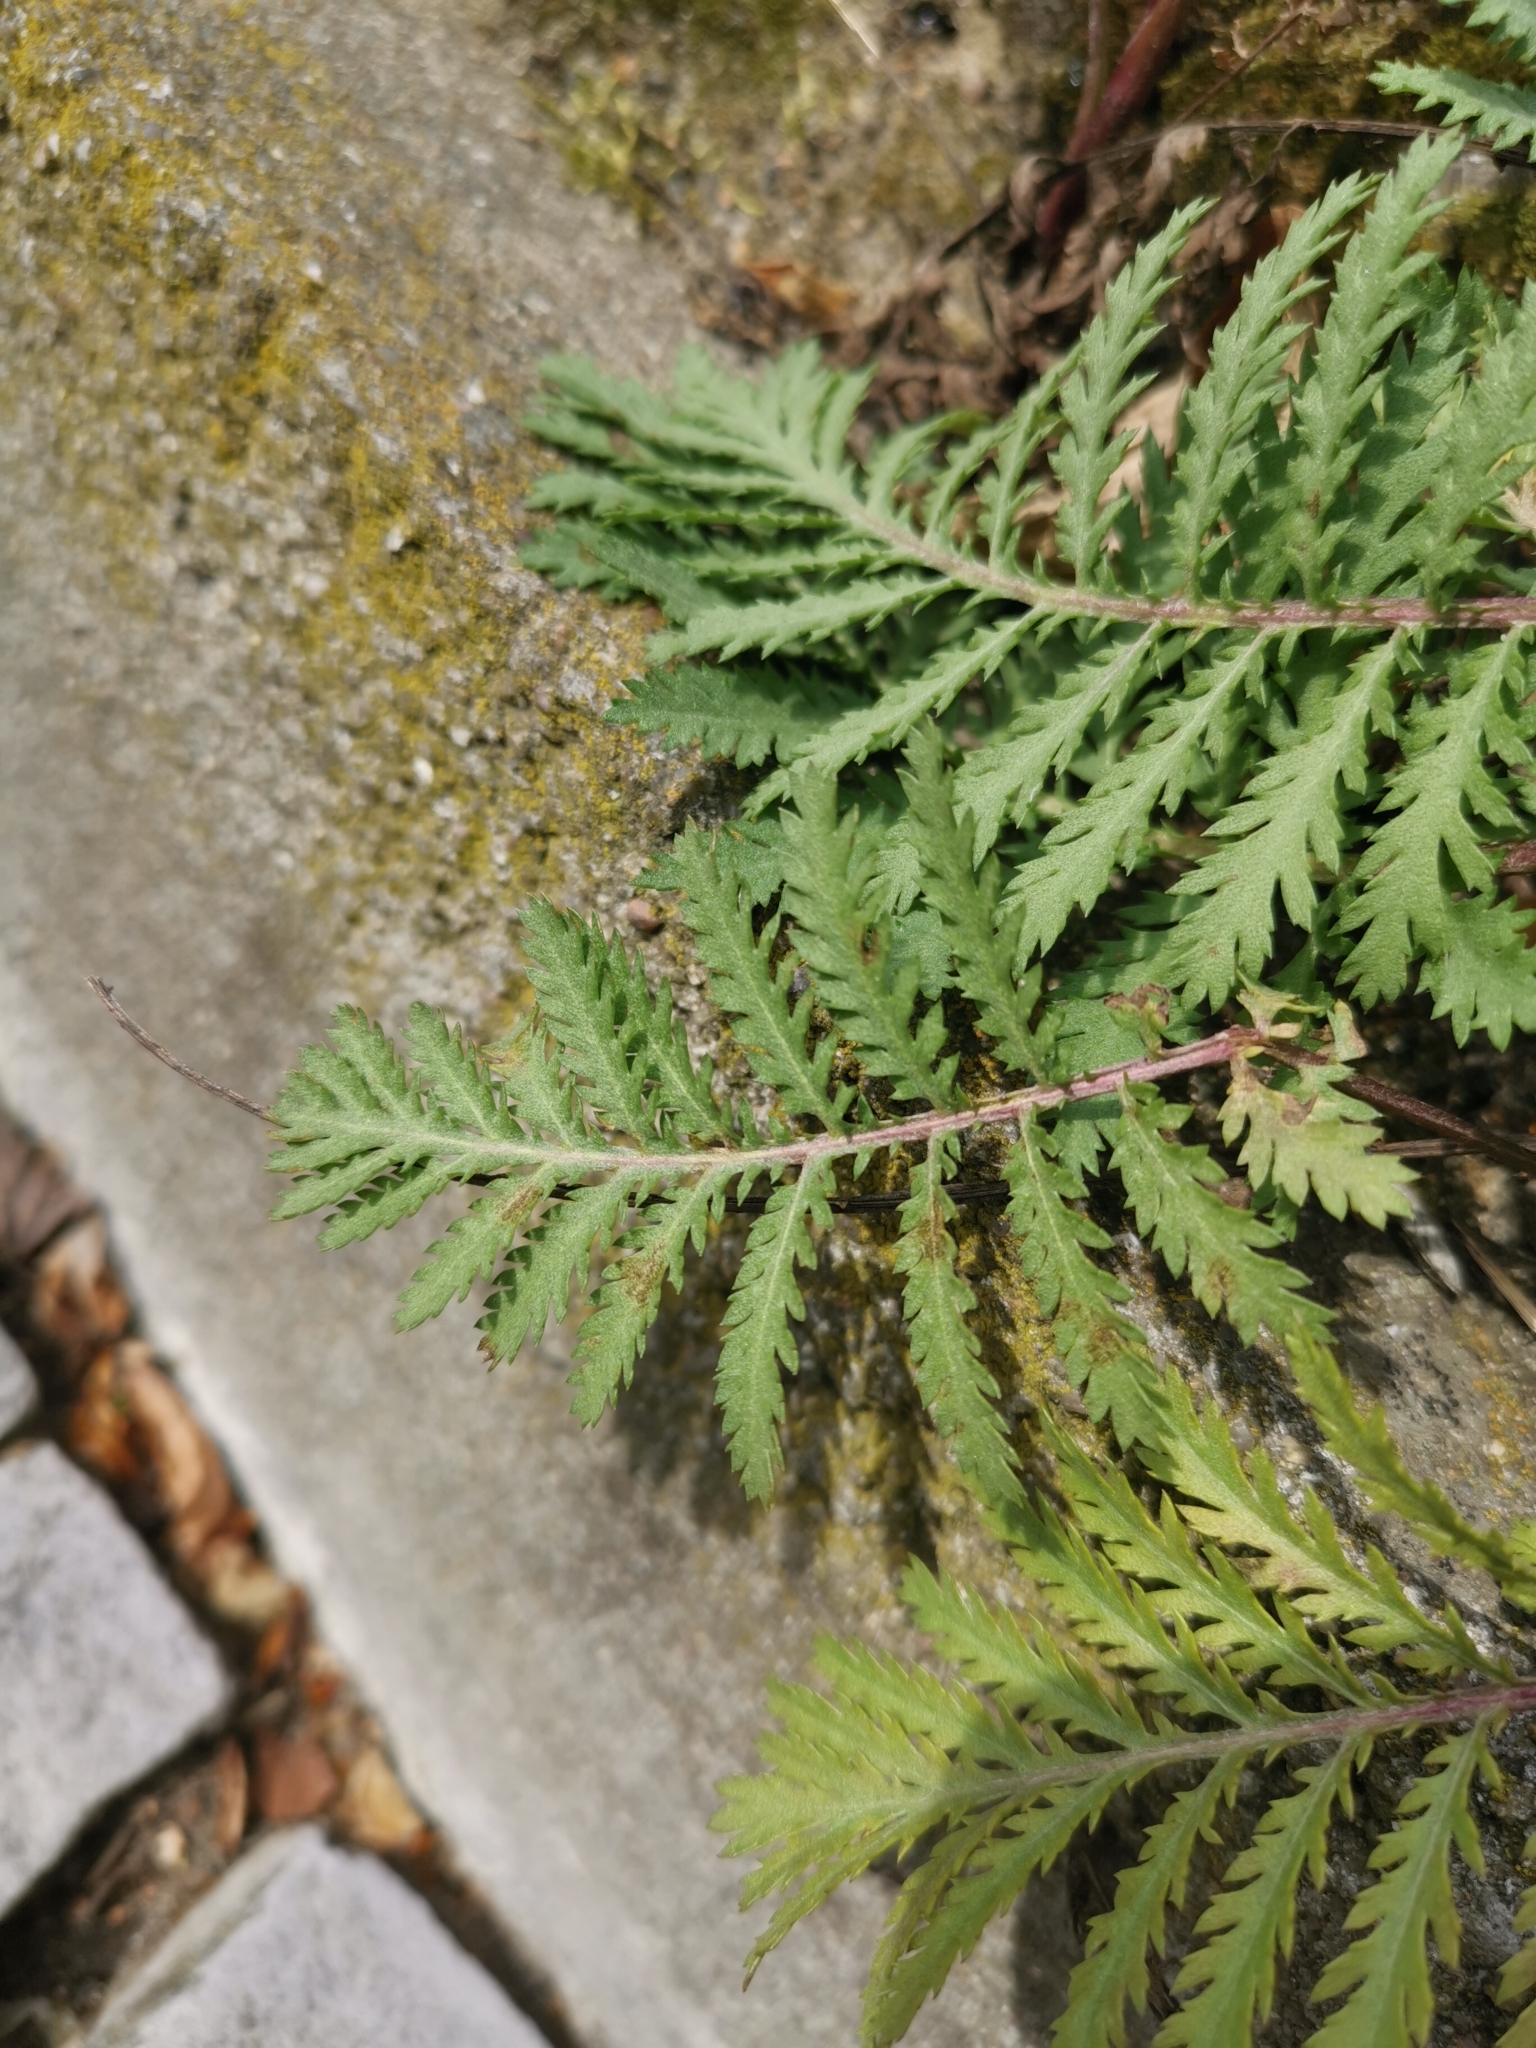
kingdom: Plantae
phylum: Tracheophyta
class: Magnoliopsida
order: Asterales
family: Asteraceae
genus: Tanacetum
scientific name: Tanacetum vulgare
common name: Common tansy
